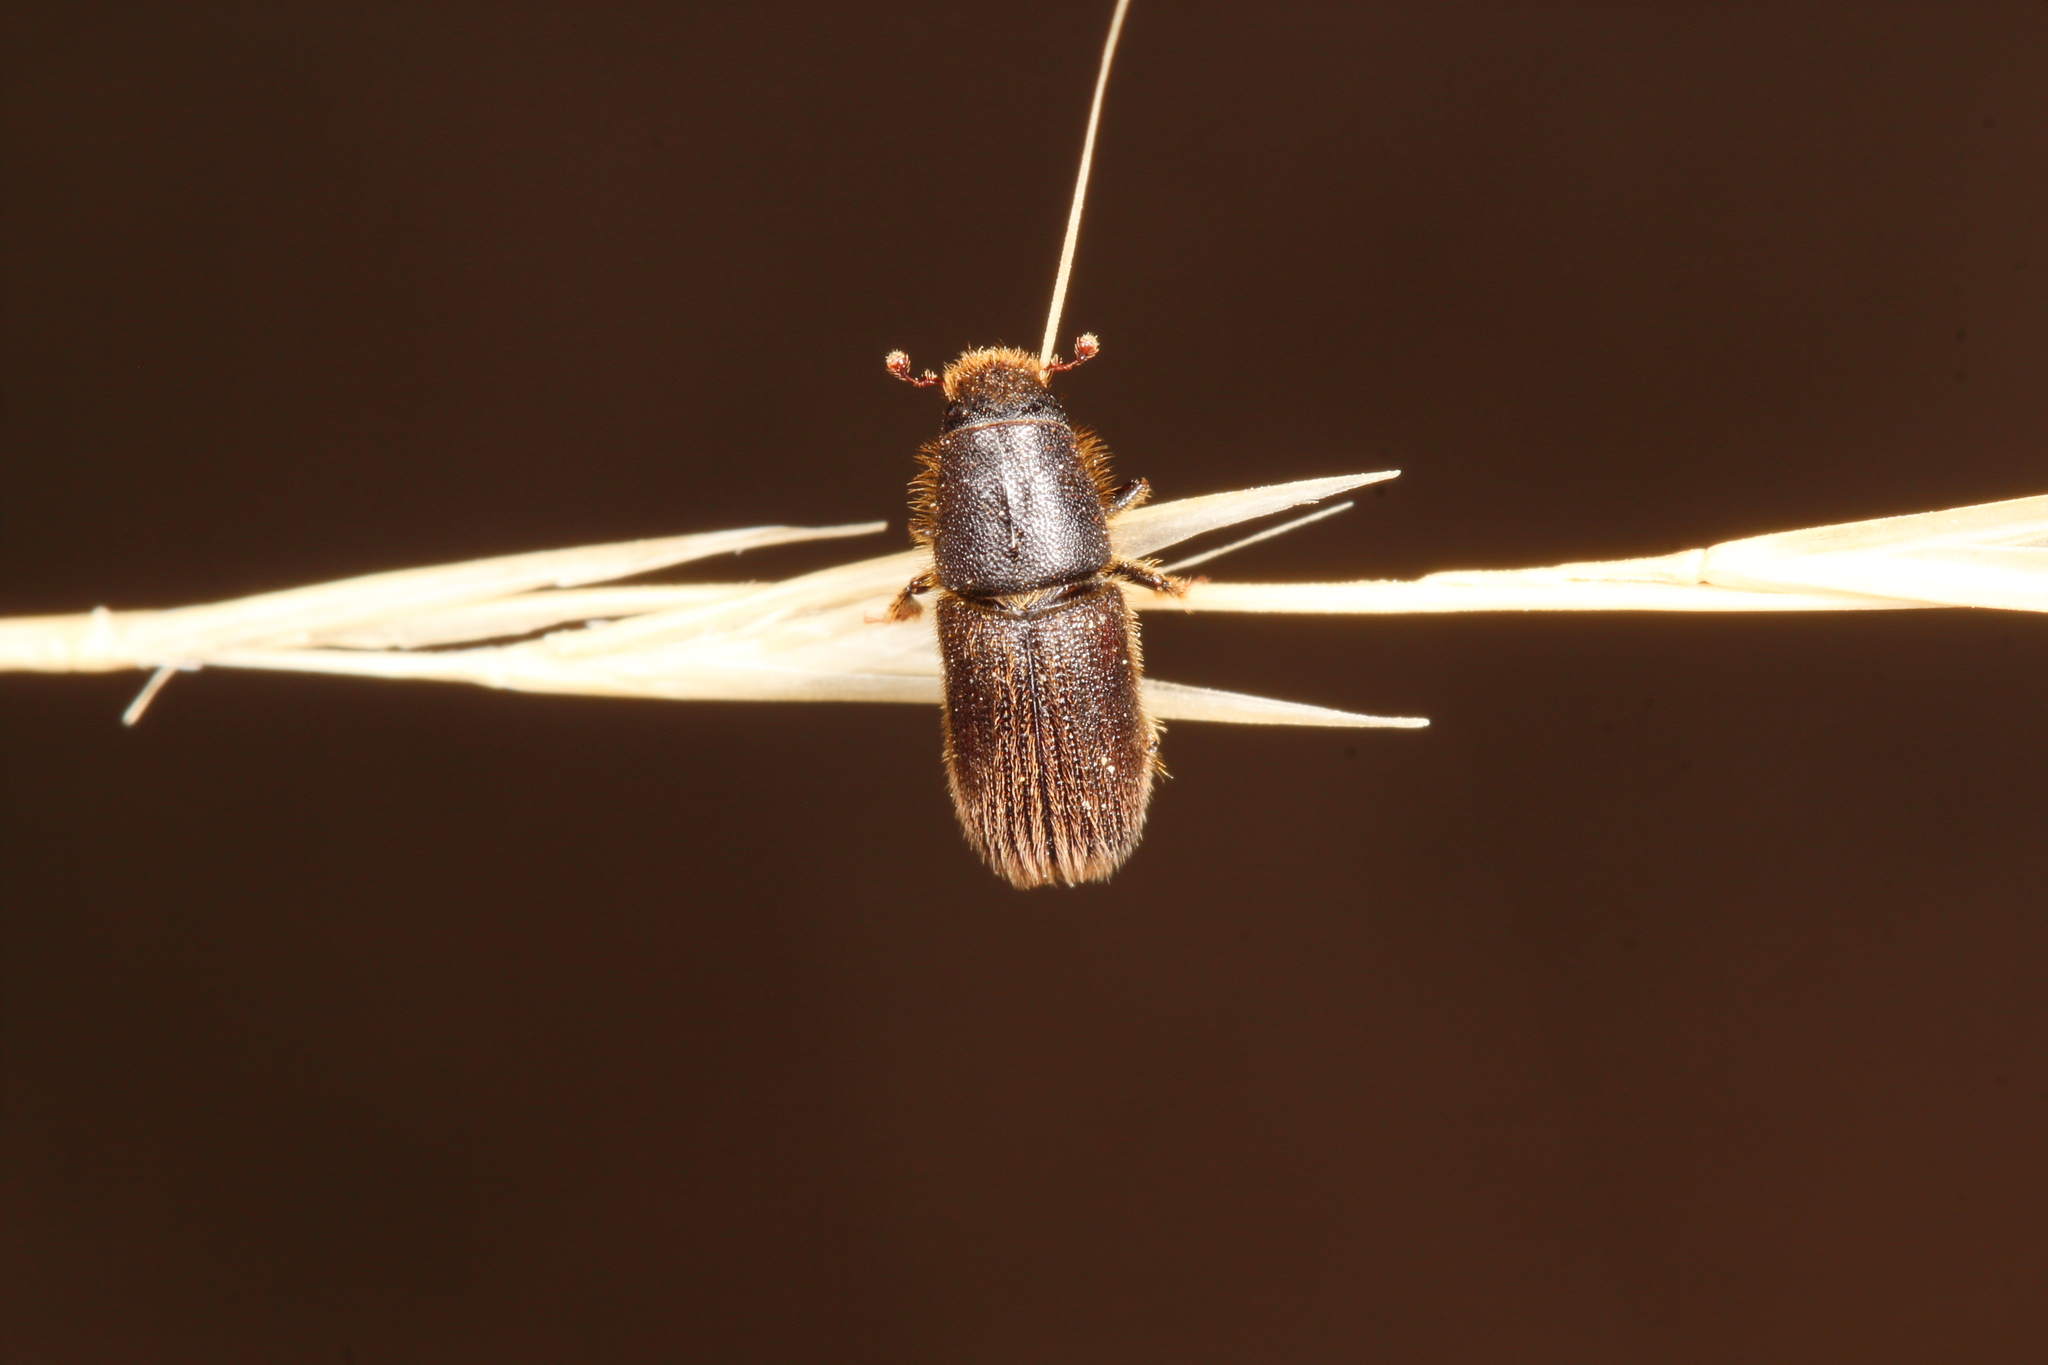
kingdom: Animalia
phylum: Arthropoda
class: Insecta
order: Coleoptera
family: Curculionidae
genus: Hylurgus
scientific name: Hylurgus ligniperda
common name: Goldenhaired bark beetle
